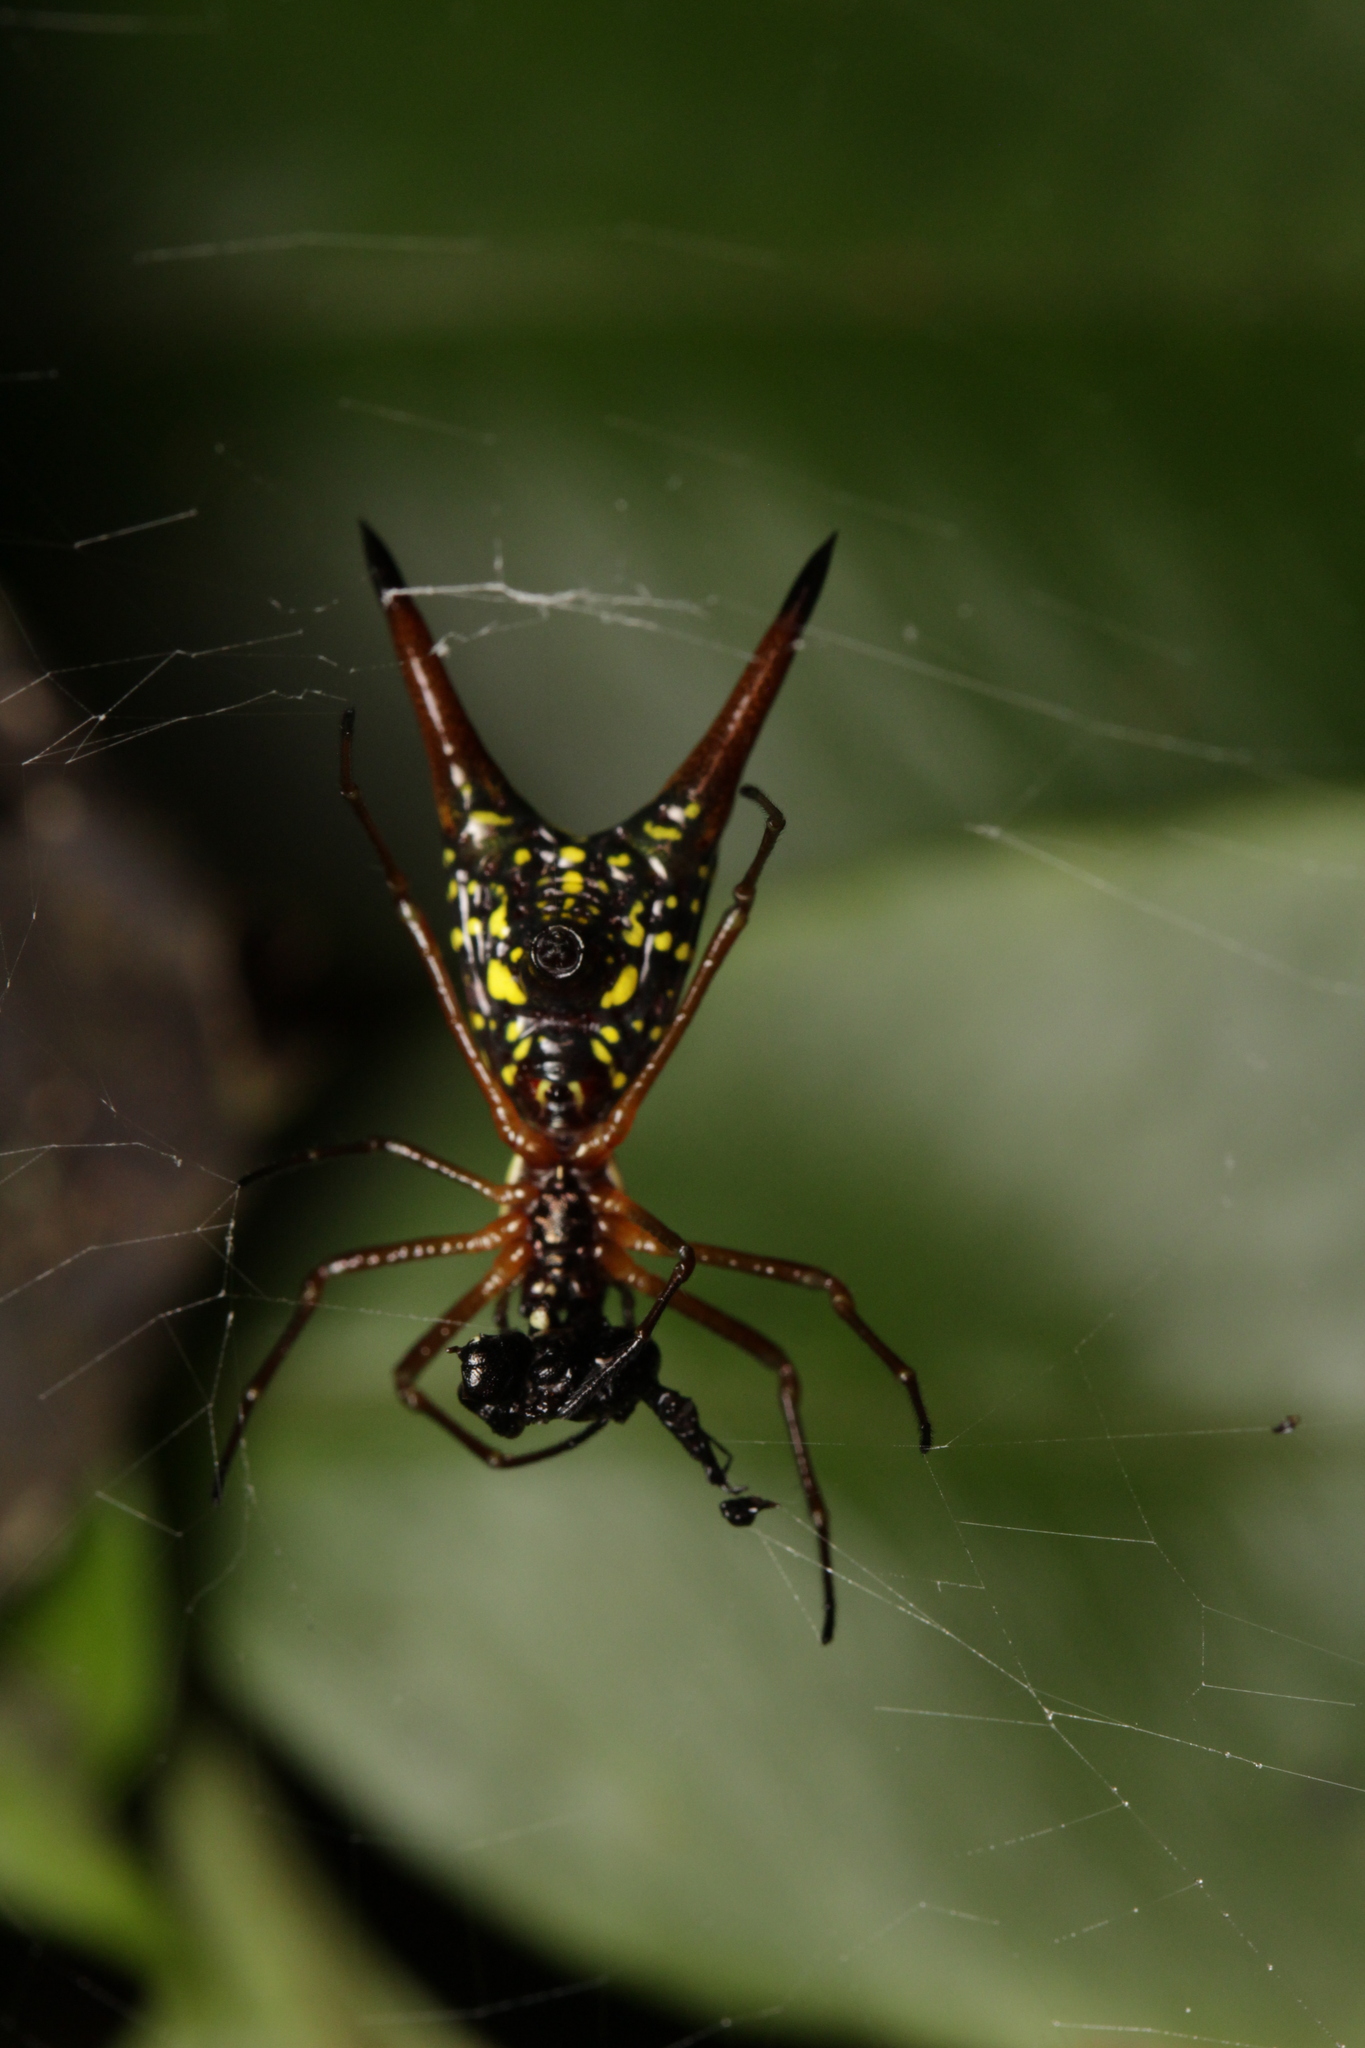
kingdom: Animalia
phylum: Arthropoda
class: Arachnida
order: Araneae
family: Araneidae
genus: Micrathena
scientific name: Micrathena brevipes
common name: Orb weavers
